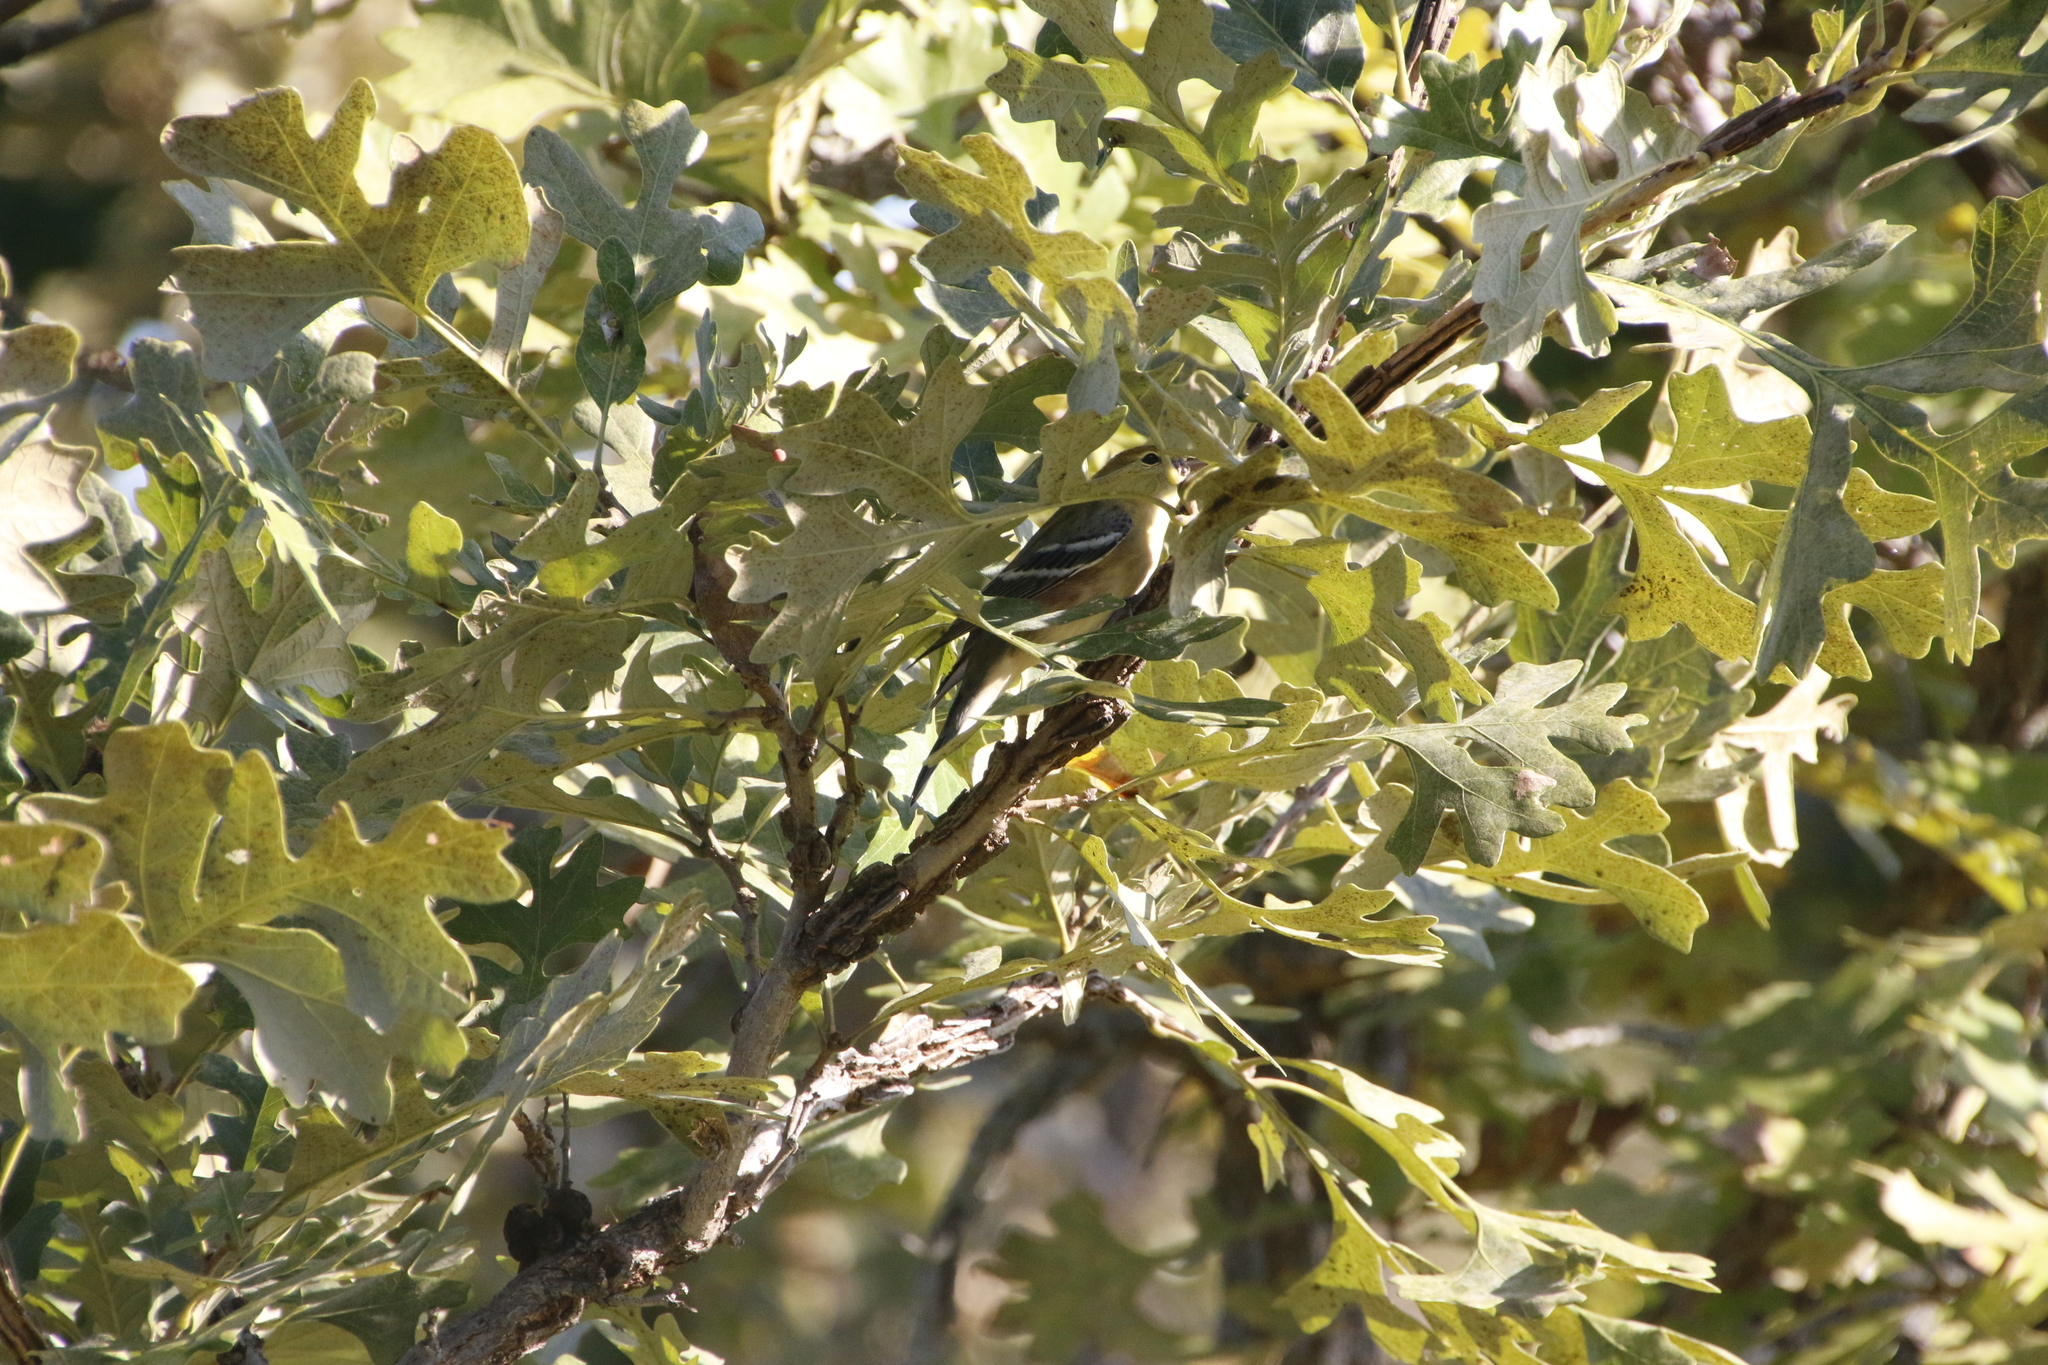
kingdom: Animalia
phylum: Chordata
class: Aves
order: Passeriformes
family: Parulidae
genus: Setophaga
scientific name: Setophaga castanea
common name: Bay-breasted warbler
